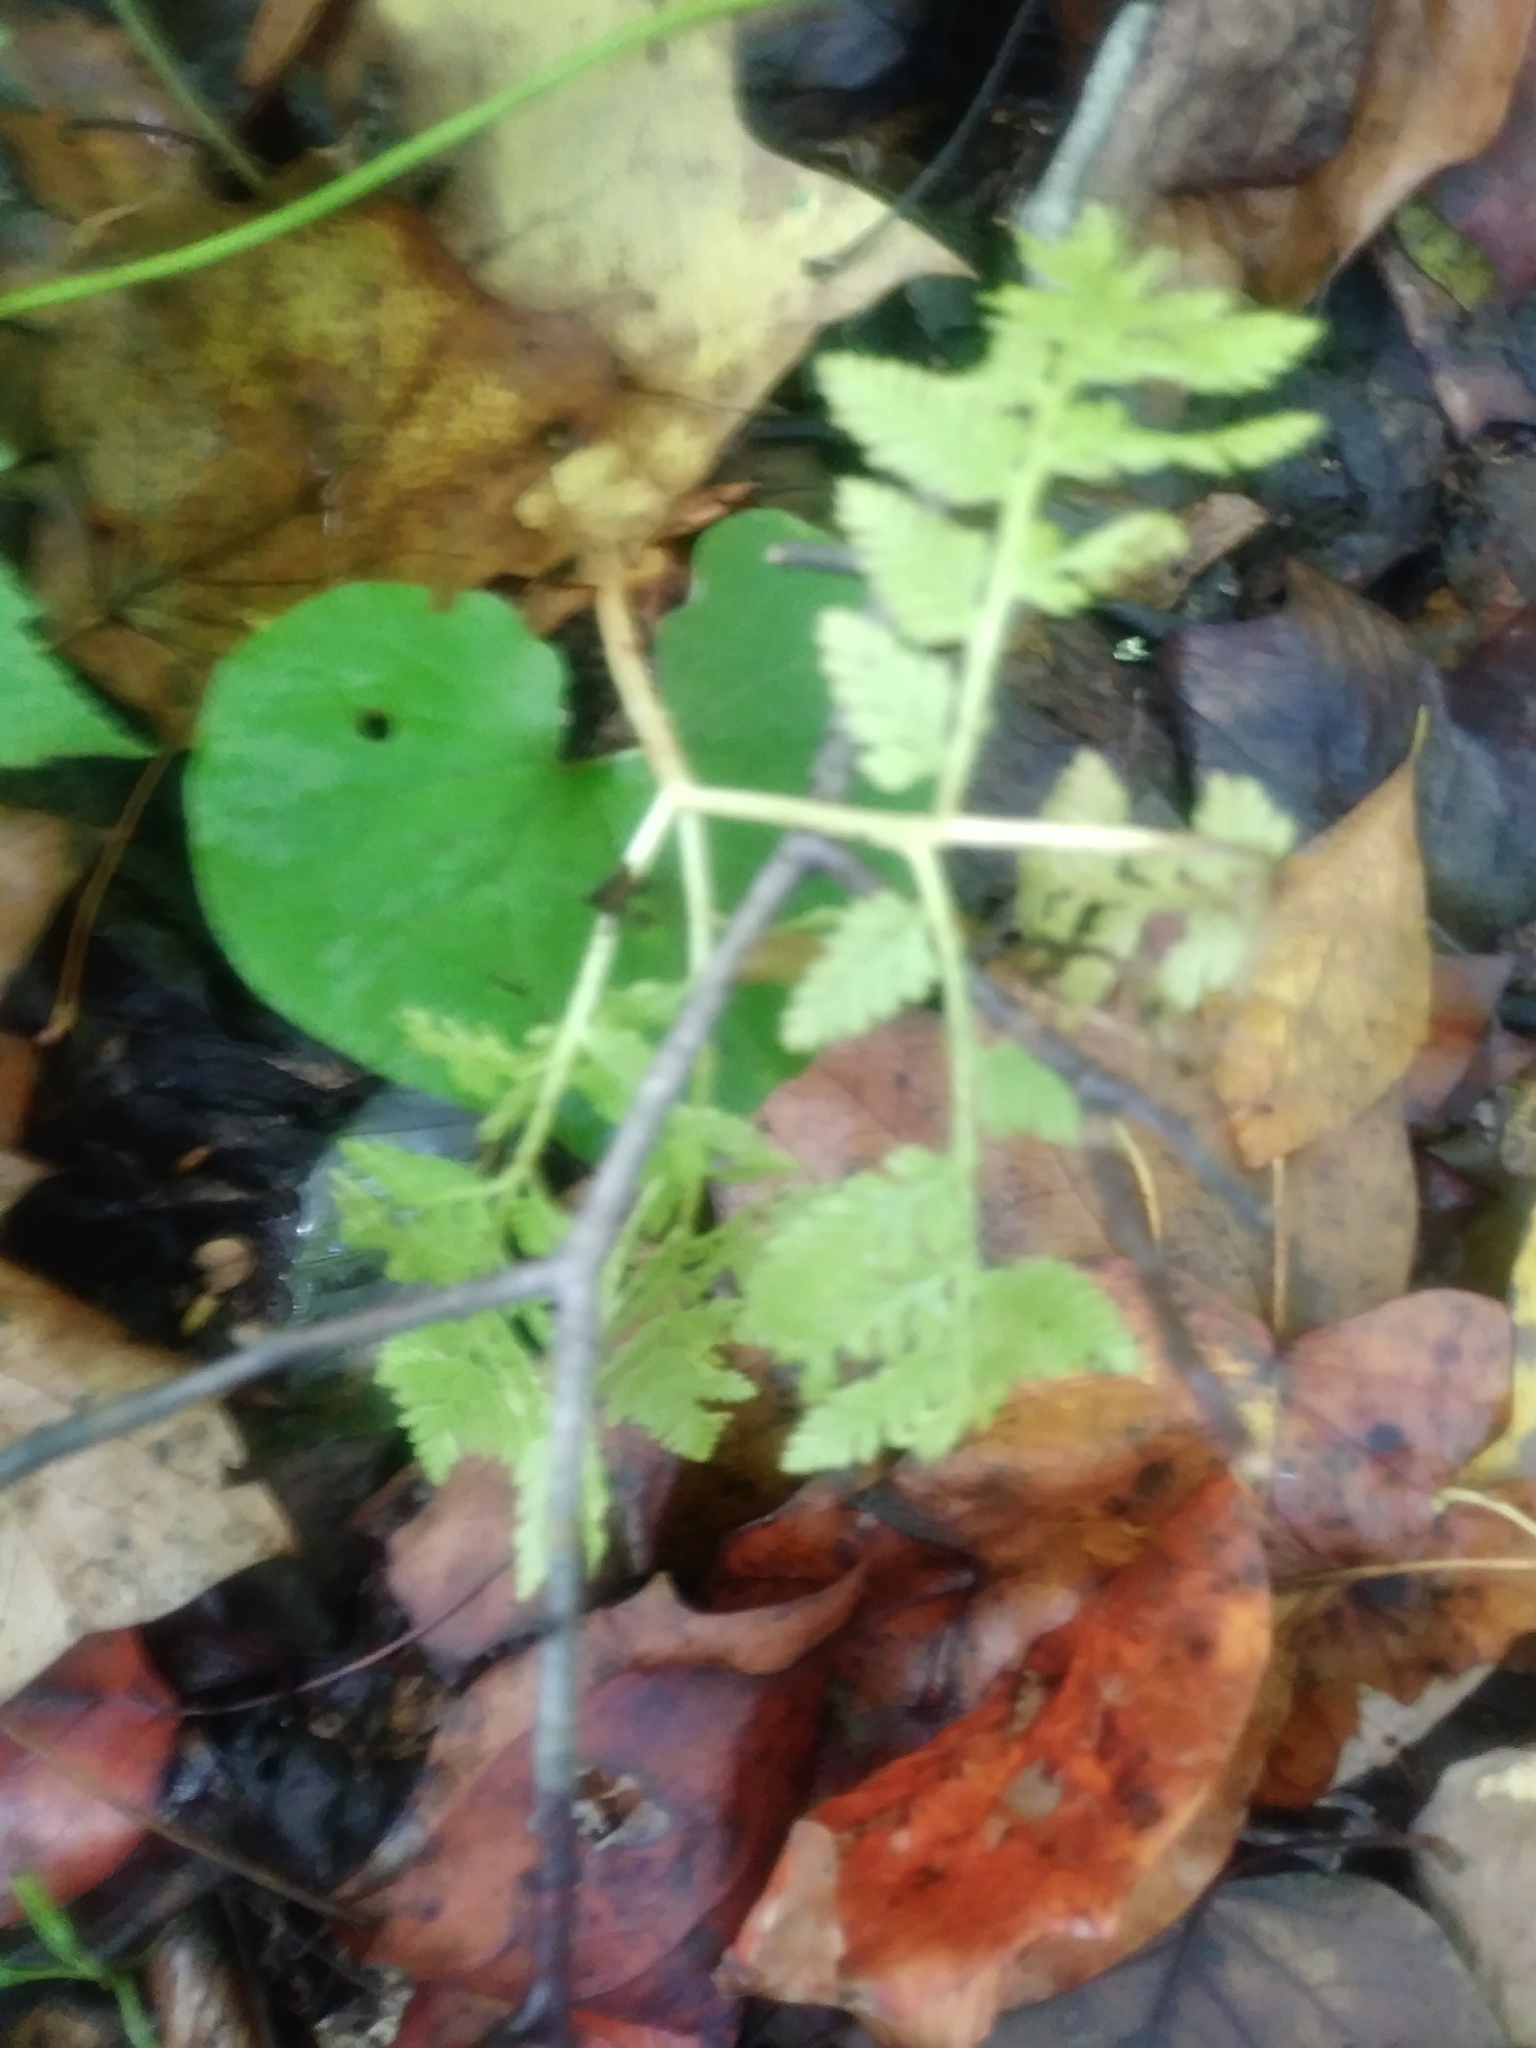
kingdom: Plantae
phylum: Tracheophyta
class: Polypodiopsida
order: Ophioglossales
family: Ophioglossaceae
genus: Botrypus
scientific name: Botrypus virginianus
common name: Common grapefern
